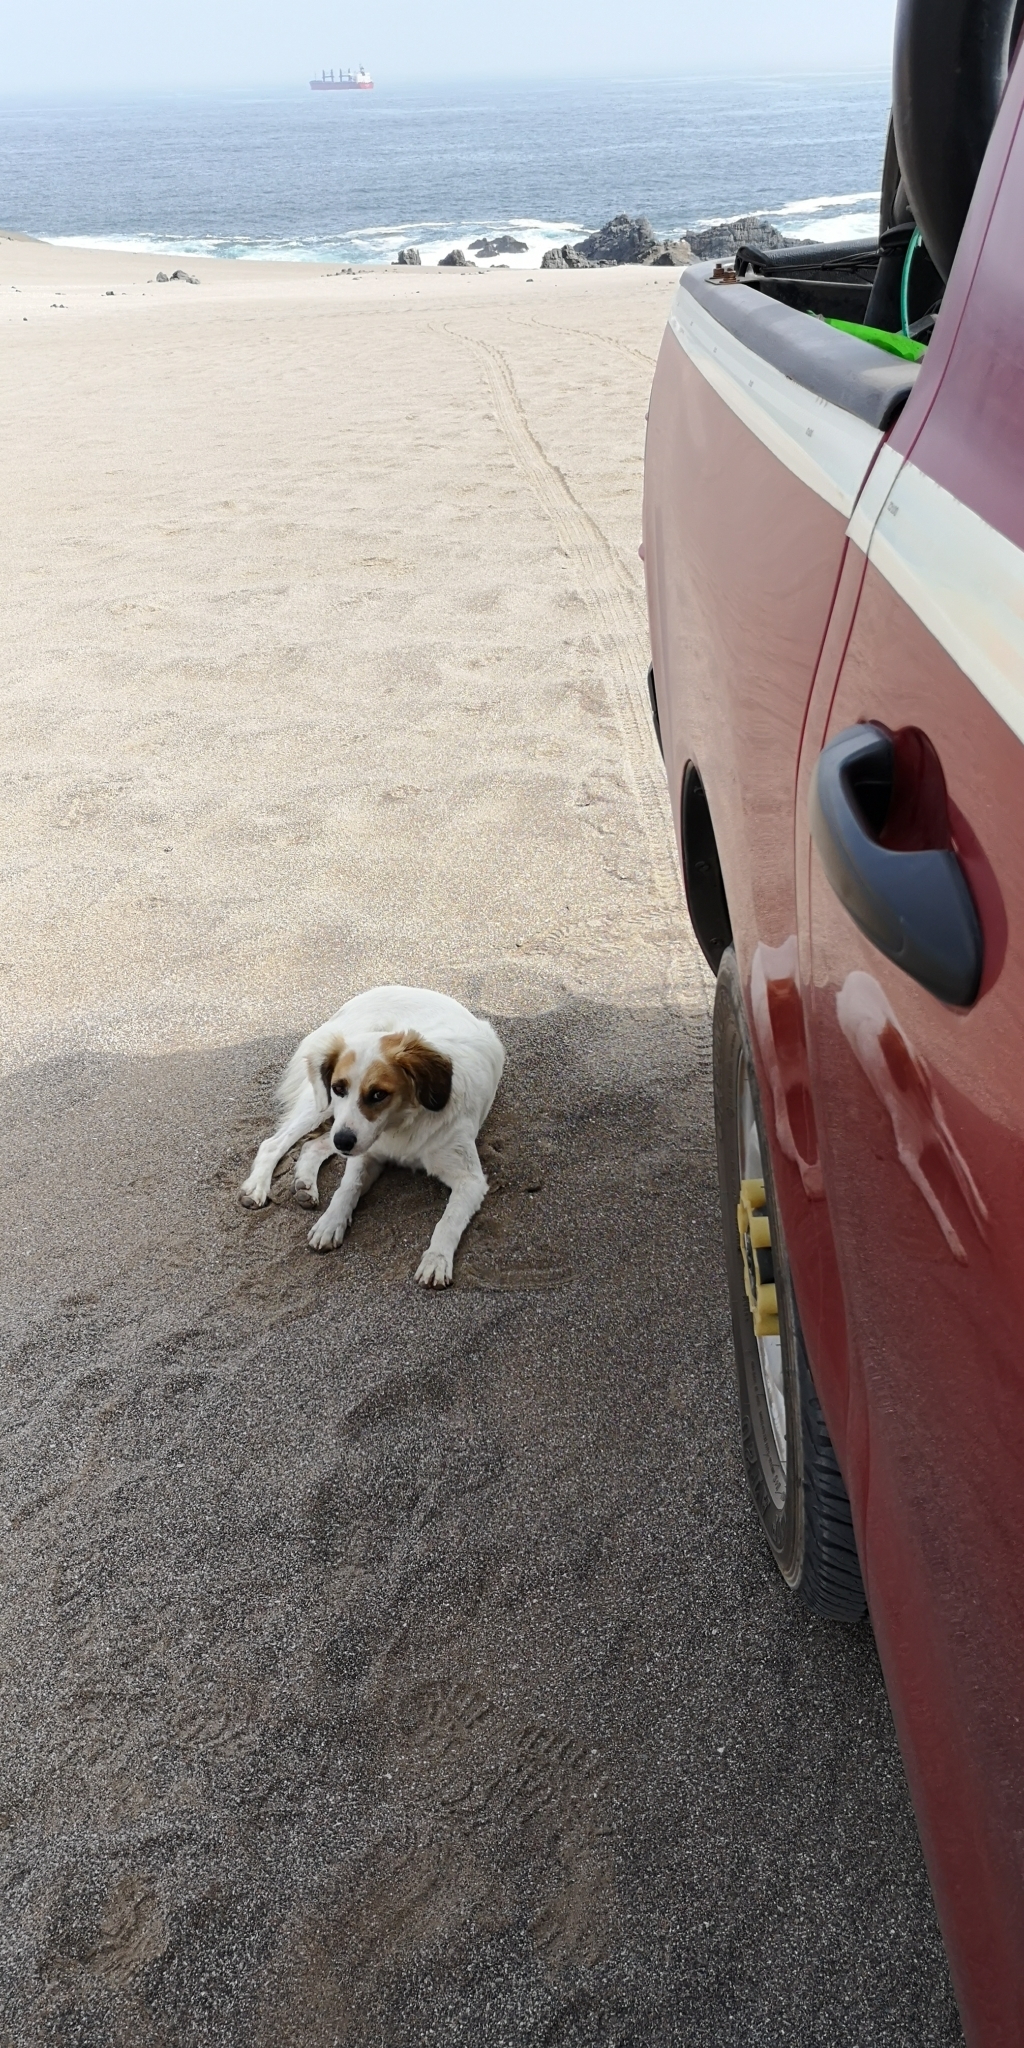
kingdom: Animalia
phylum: Chordata
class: Mammalia
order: Carnivora
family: Canidae
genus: Canis
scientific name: Canis lupus
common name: Gray wolf
